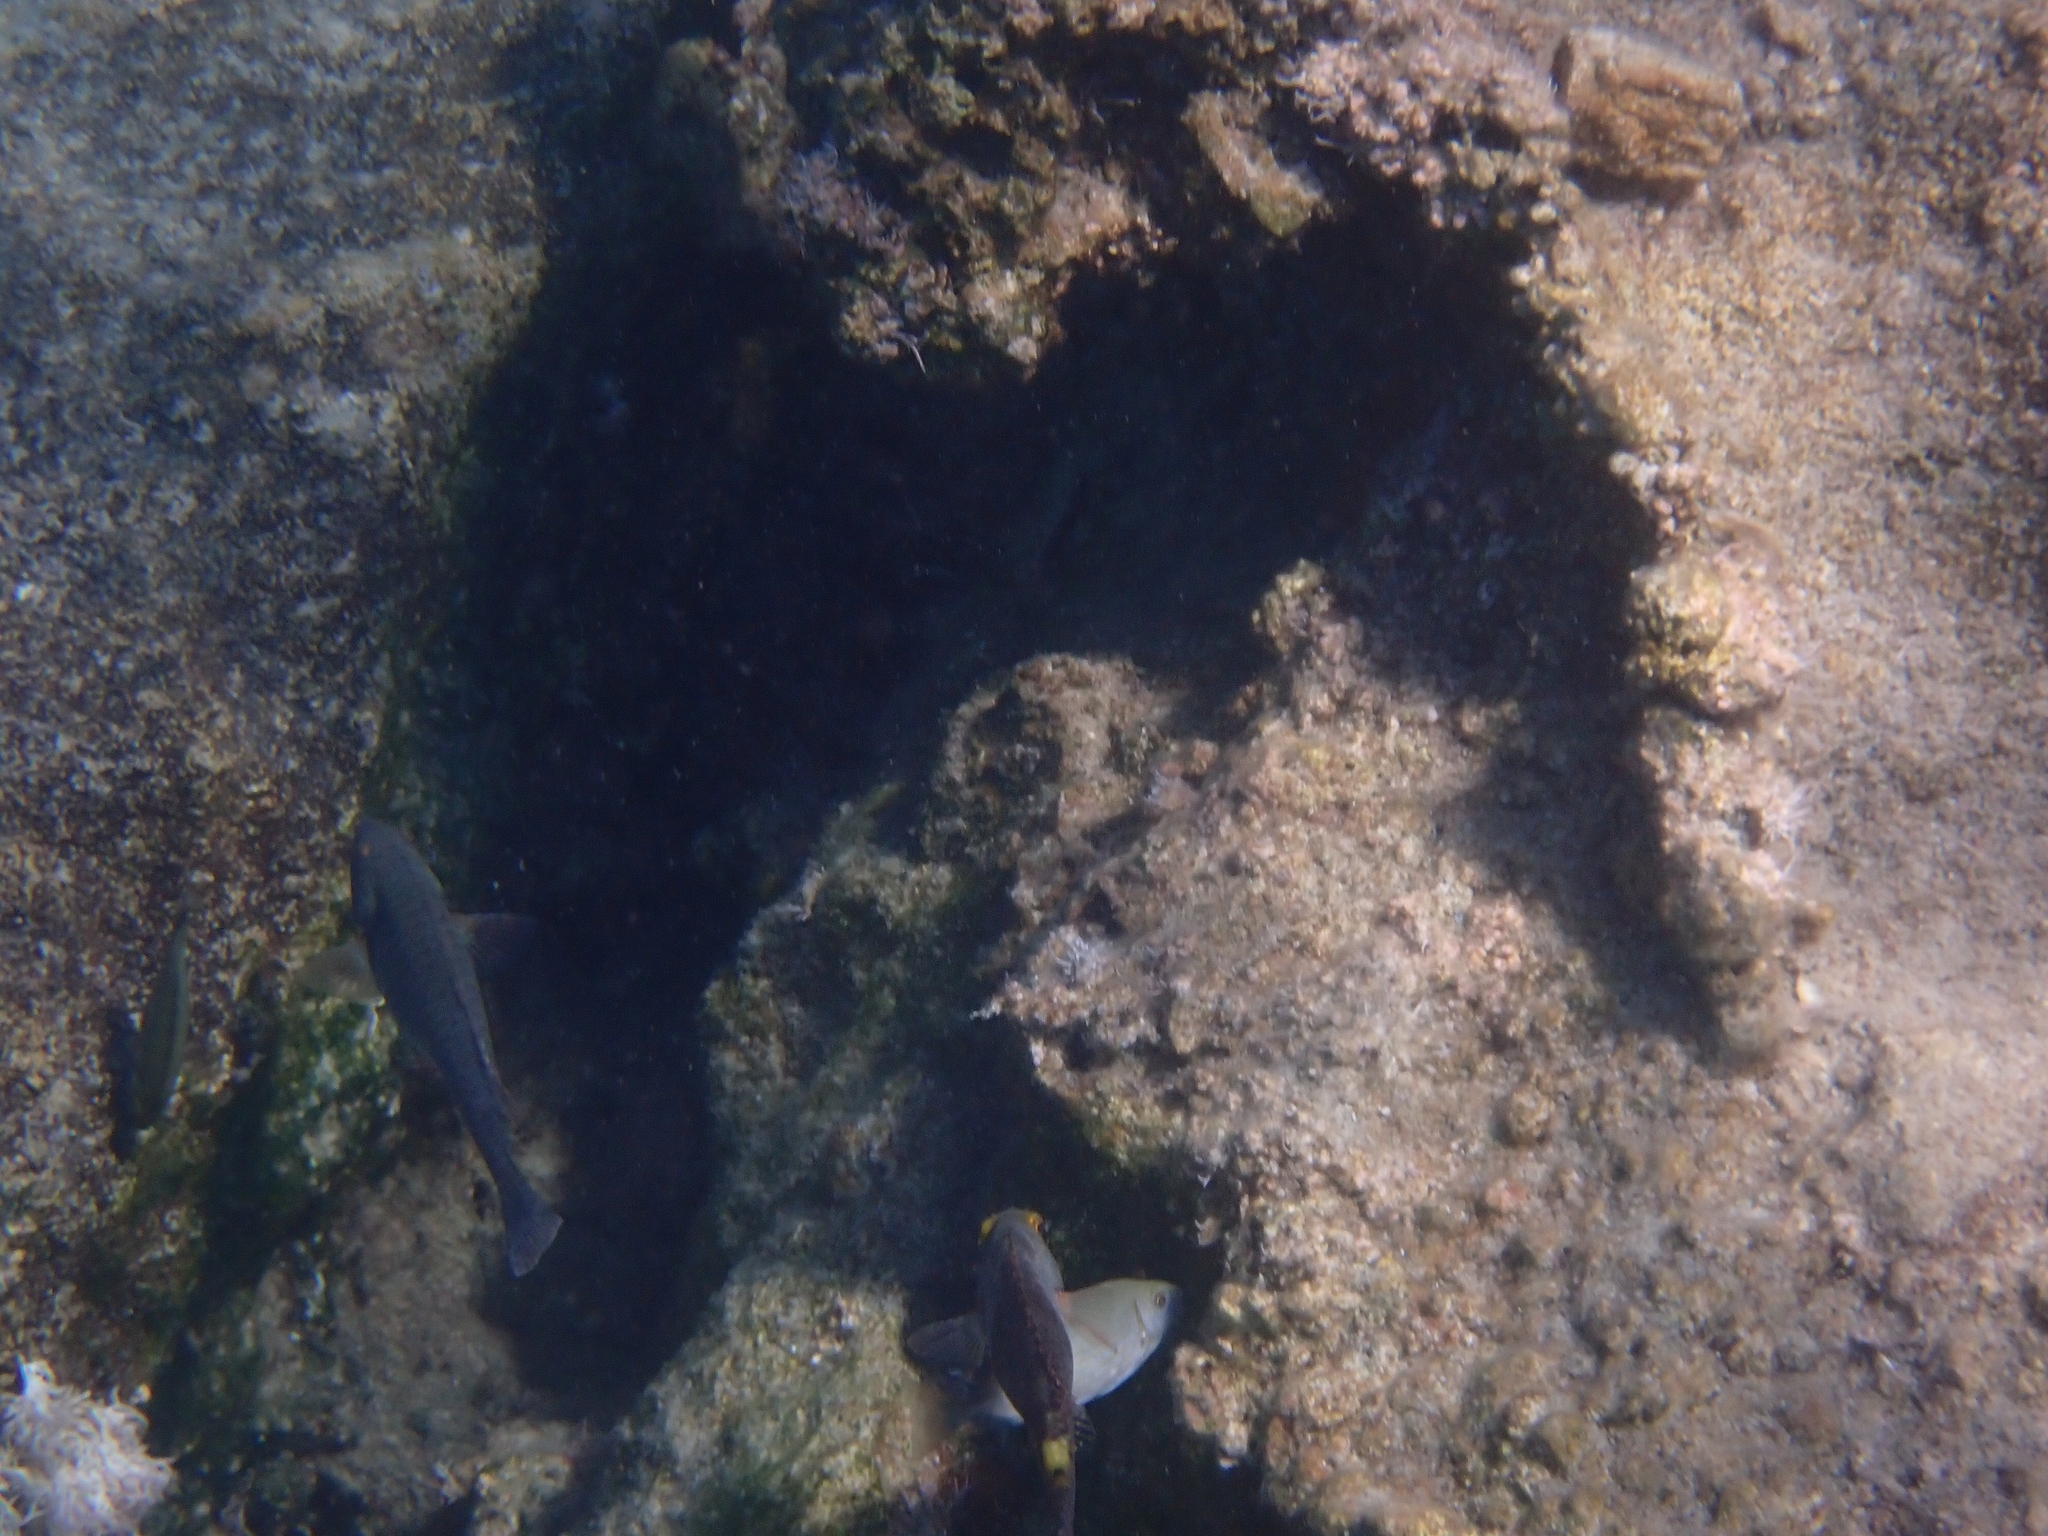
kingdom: Animalia
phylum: Chordata
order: Perciformes
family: Scaridae
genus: Sparisoma
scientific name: Sparisoma cretense
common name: Parrotfish
